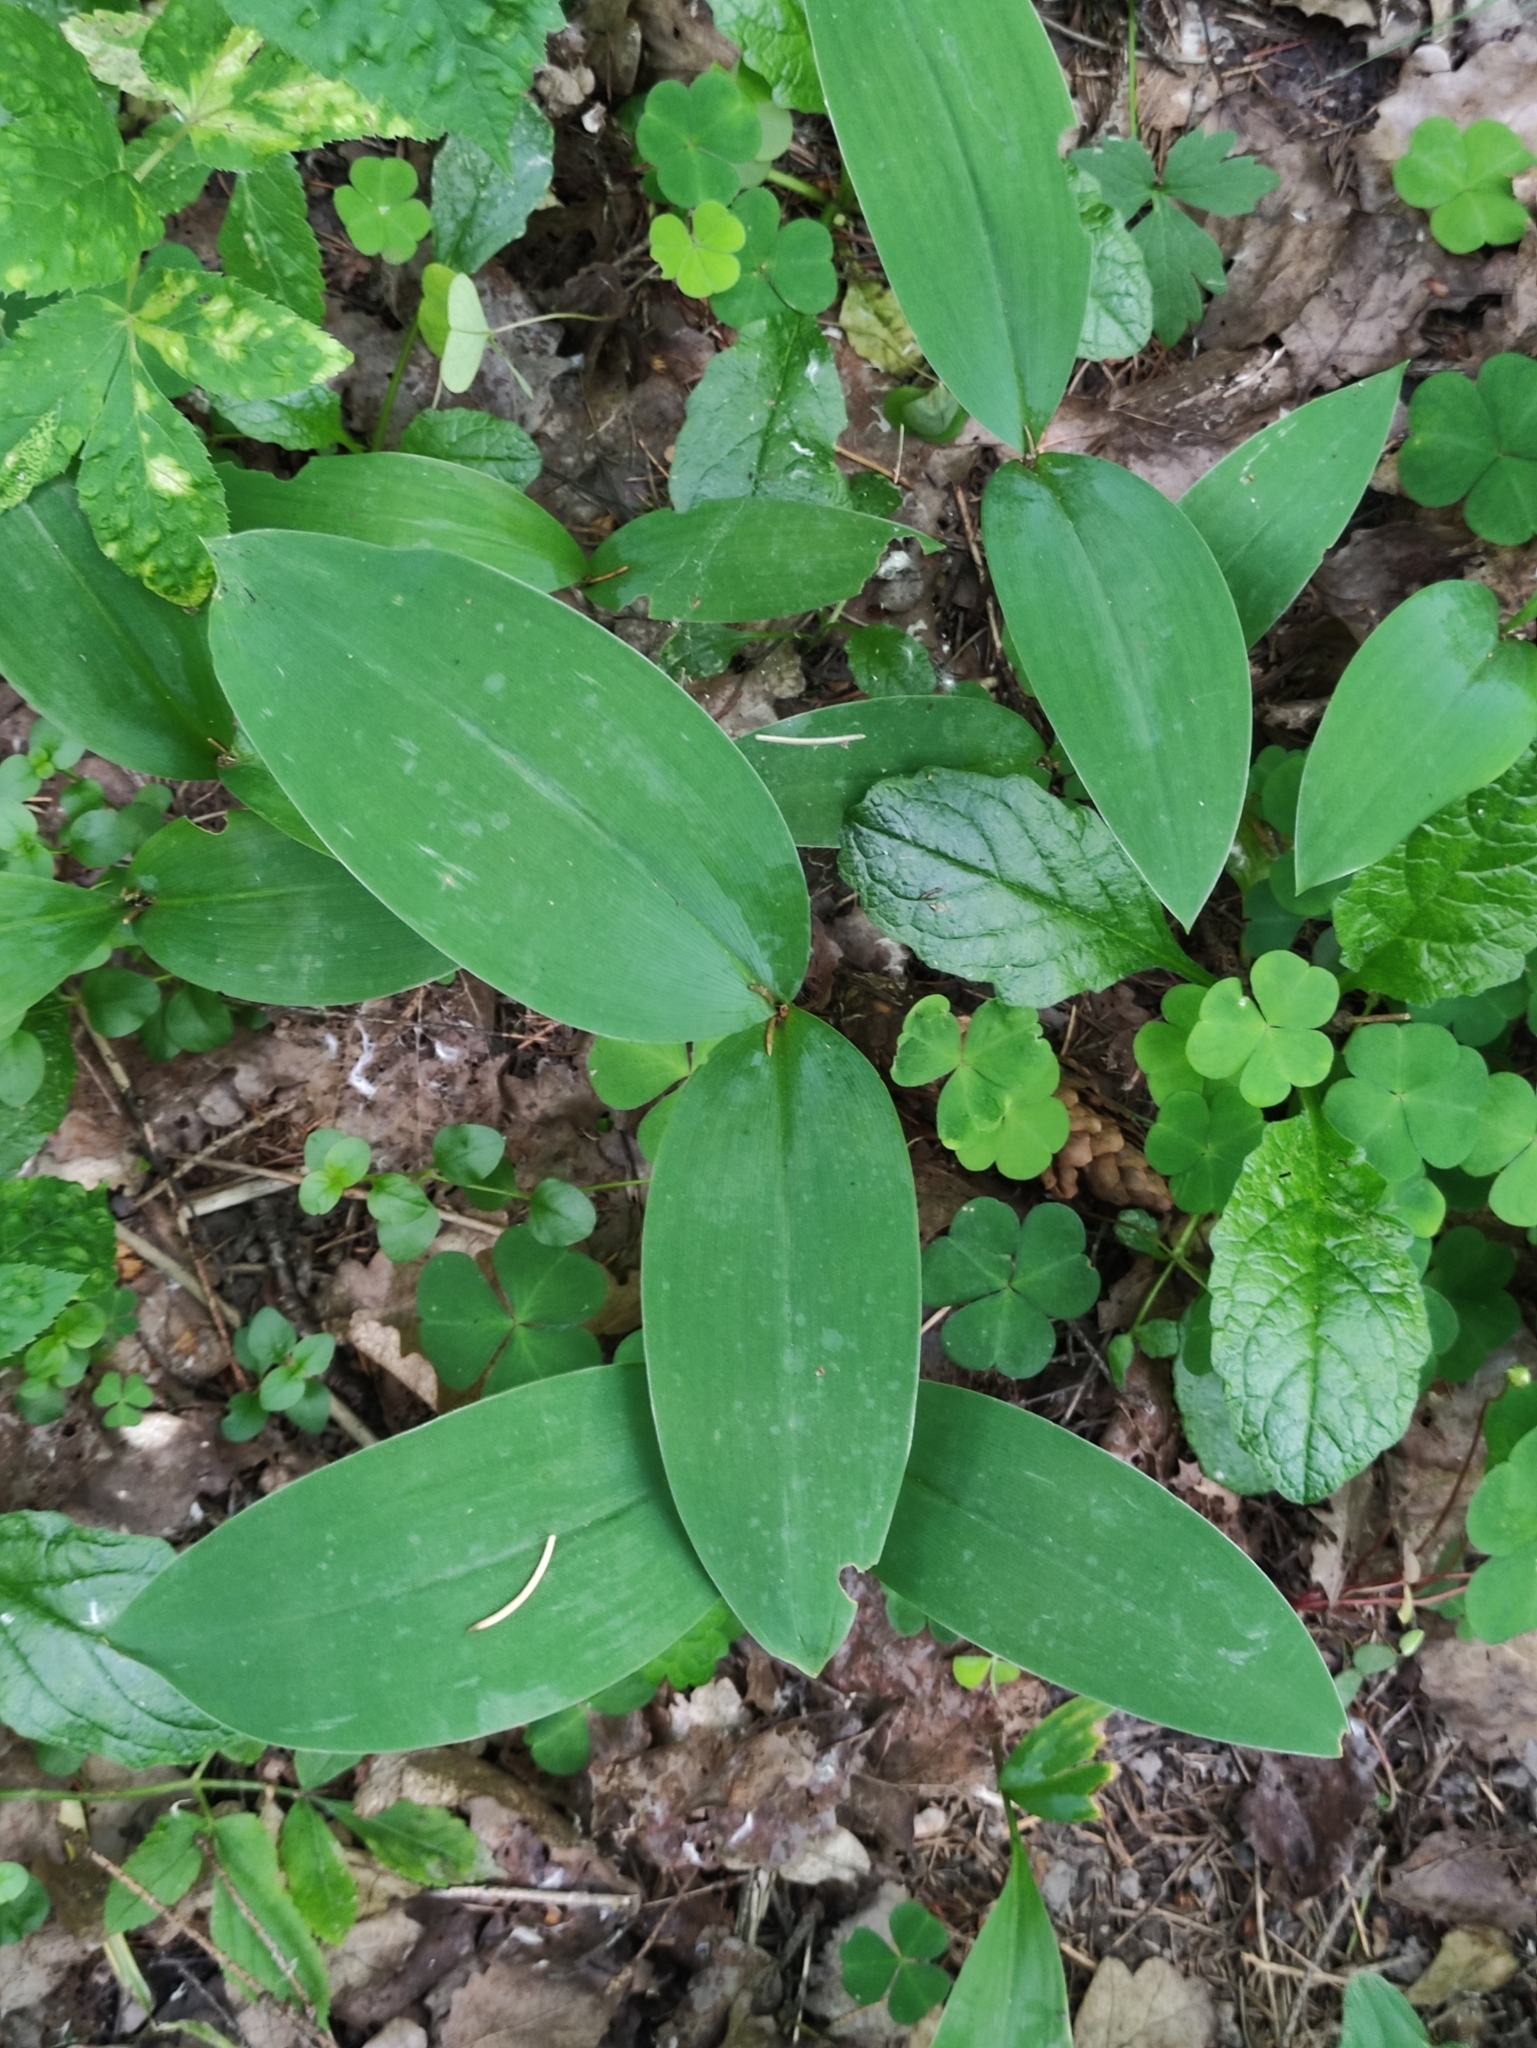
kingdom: Plantae
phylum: Tracheophyta
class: Liliopsida
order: Asparagales
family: Asparagaceae
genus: Convallaria
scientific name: Convallaria majalis
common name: Lily-of-the-valley
